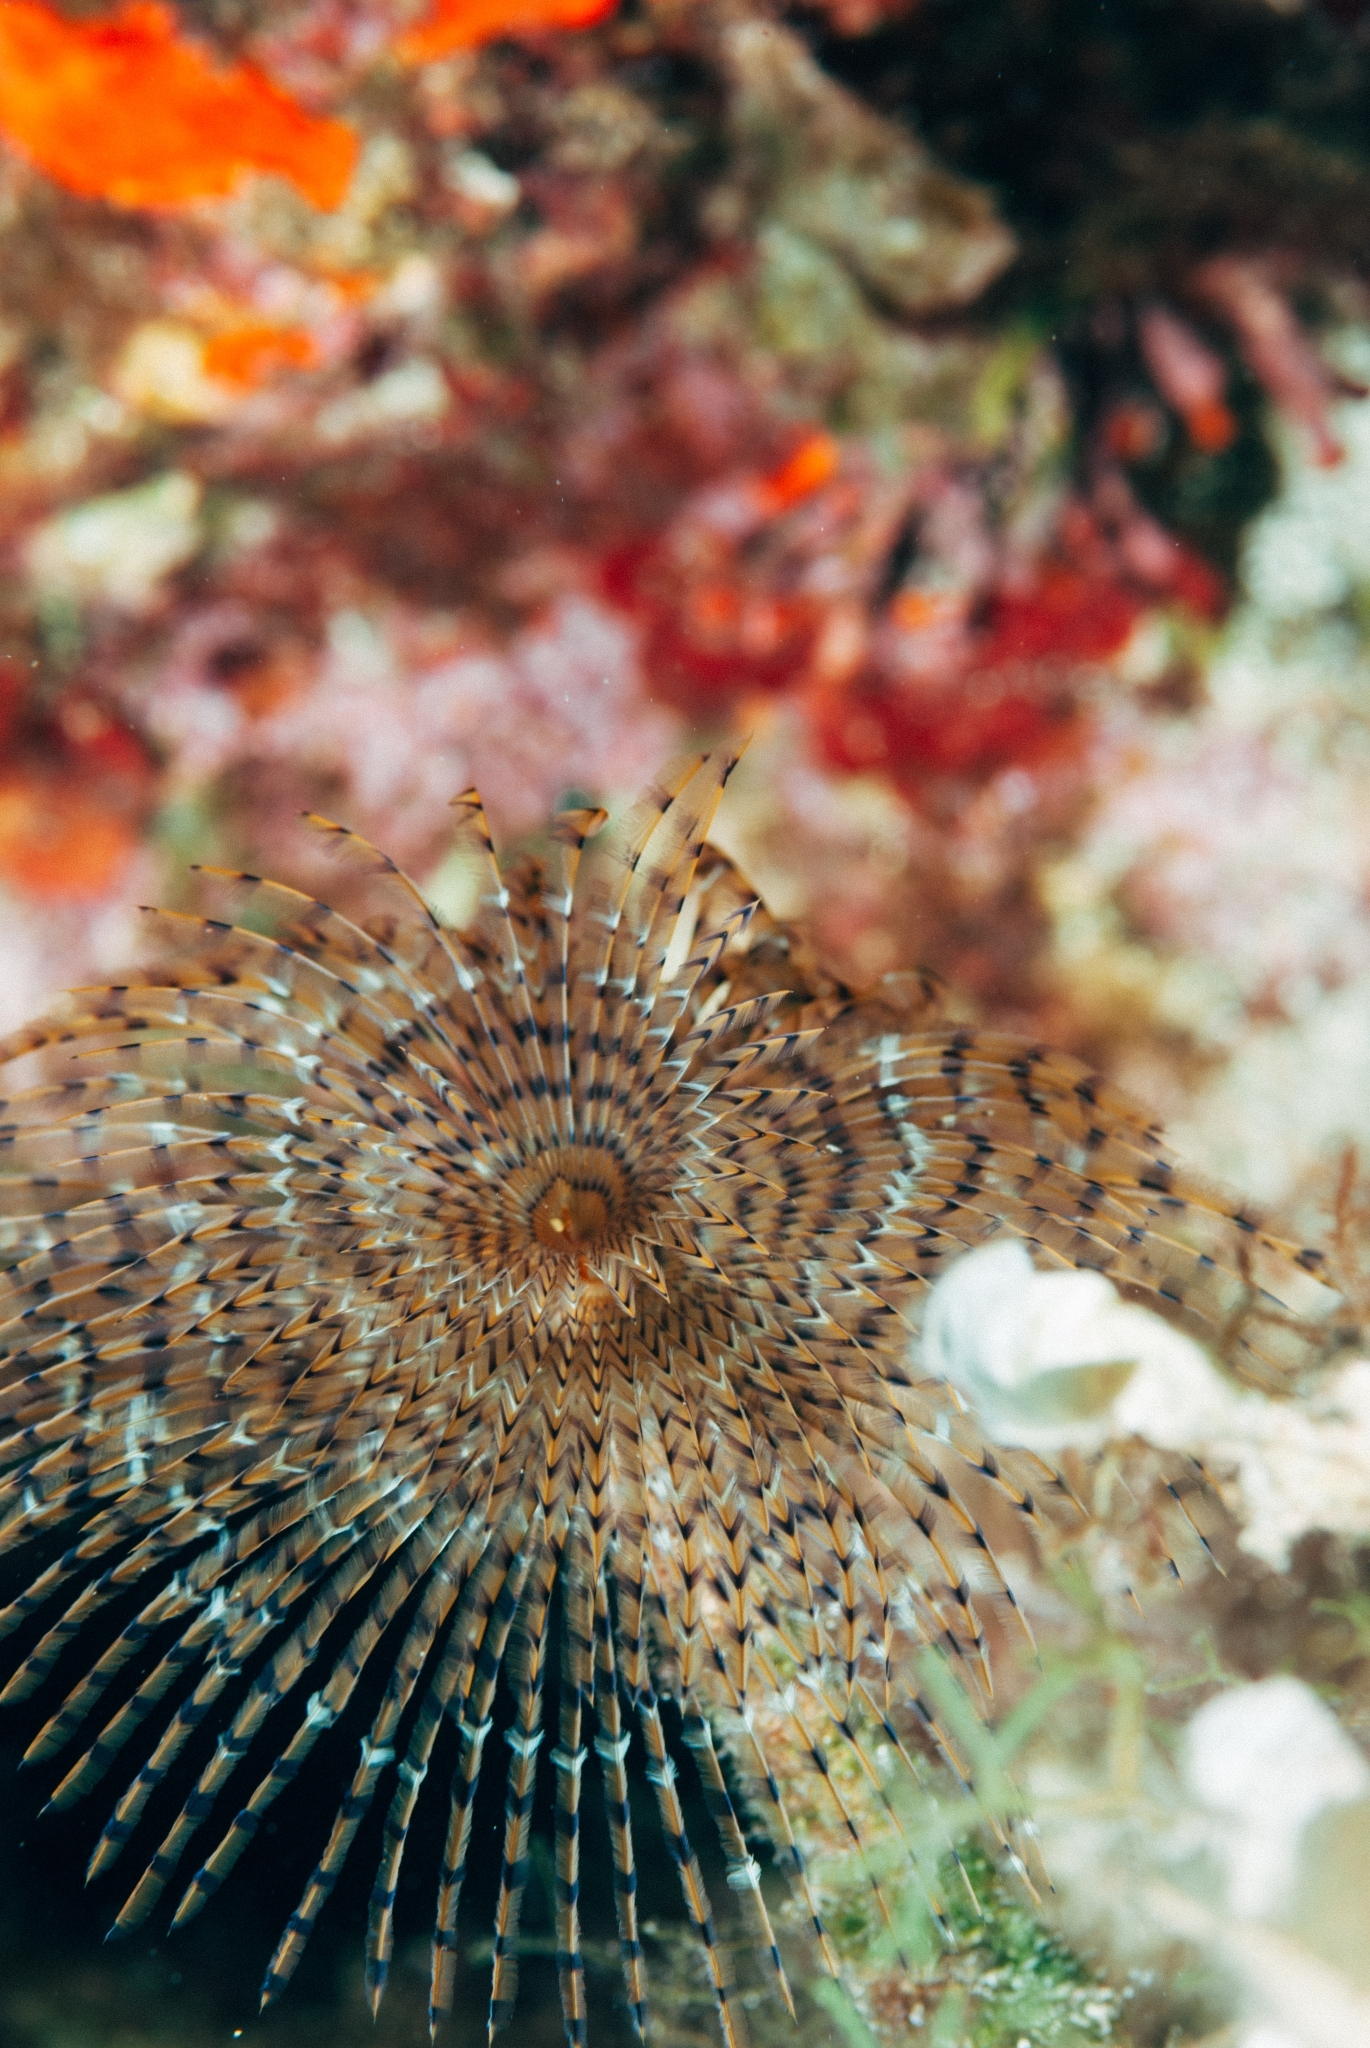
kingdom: Animalia
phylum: Annelida
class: Polychaeta
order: Sabellida
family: Sabellidae
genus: Sabella
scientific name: Sabella spallanzanii
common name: Feather duster worm
